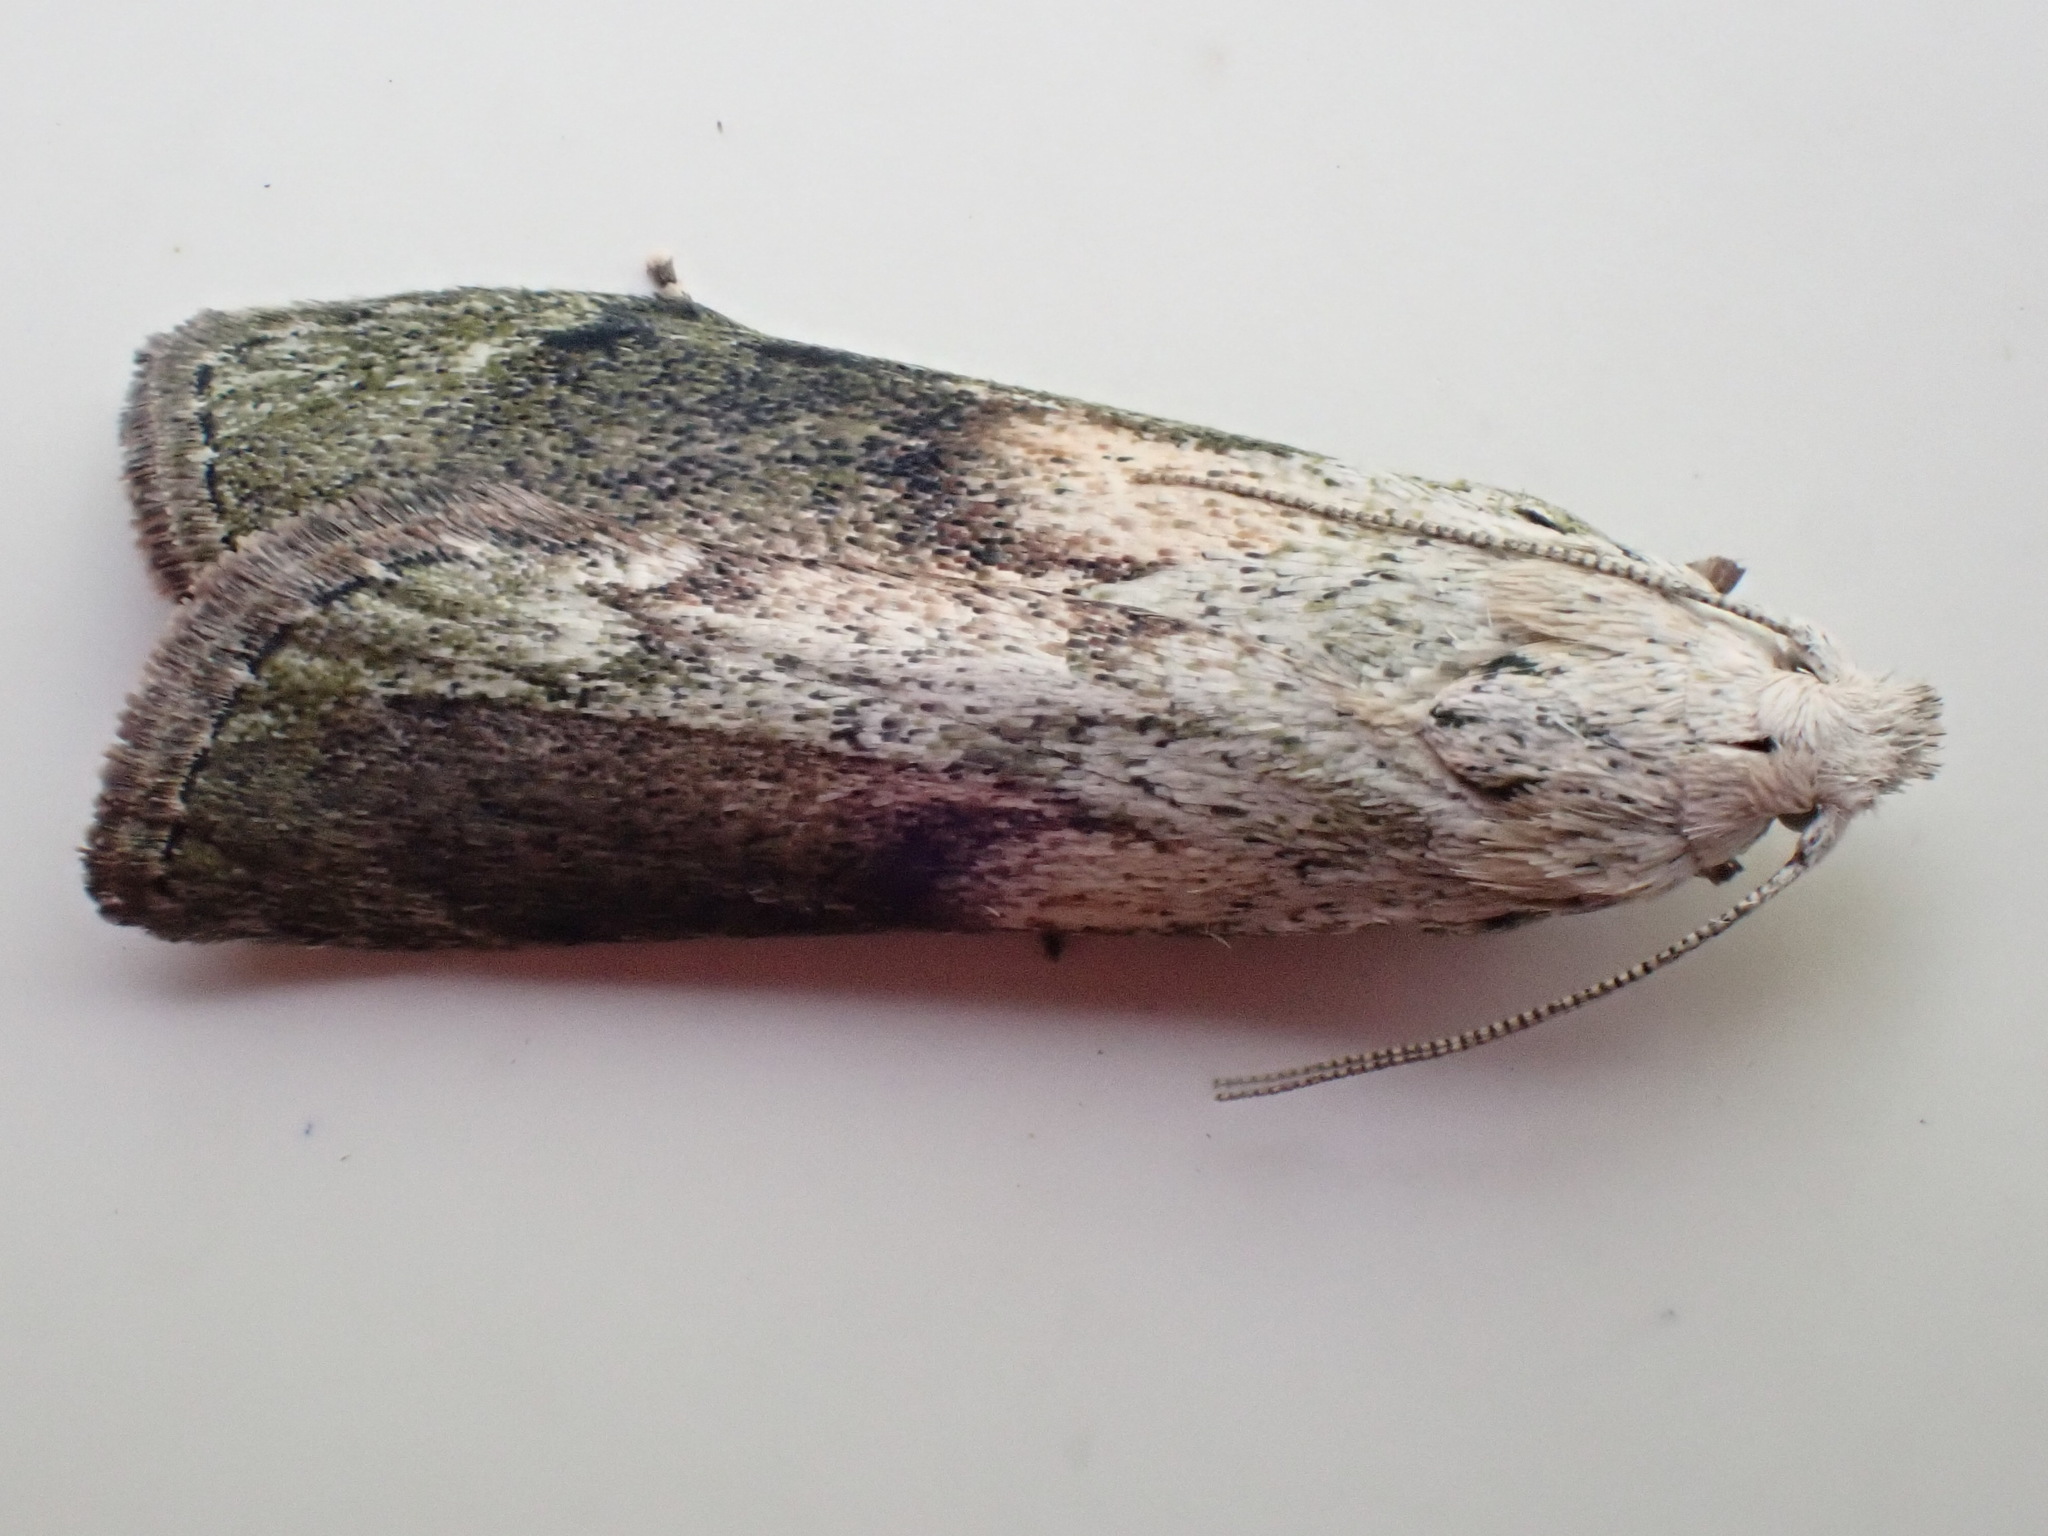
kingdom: Animalia
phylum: Arthropoda
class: Insecta
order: Lepidoptera
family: Pyralidae
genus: Aphomia
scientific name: Aphomia sociella
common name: Bee moth
